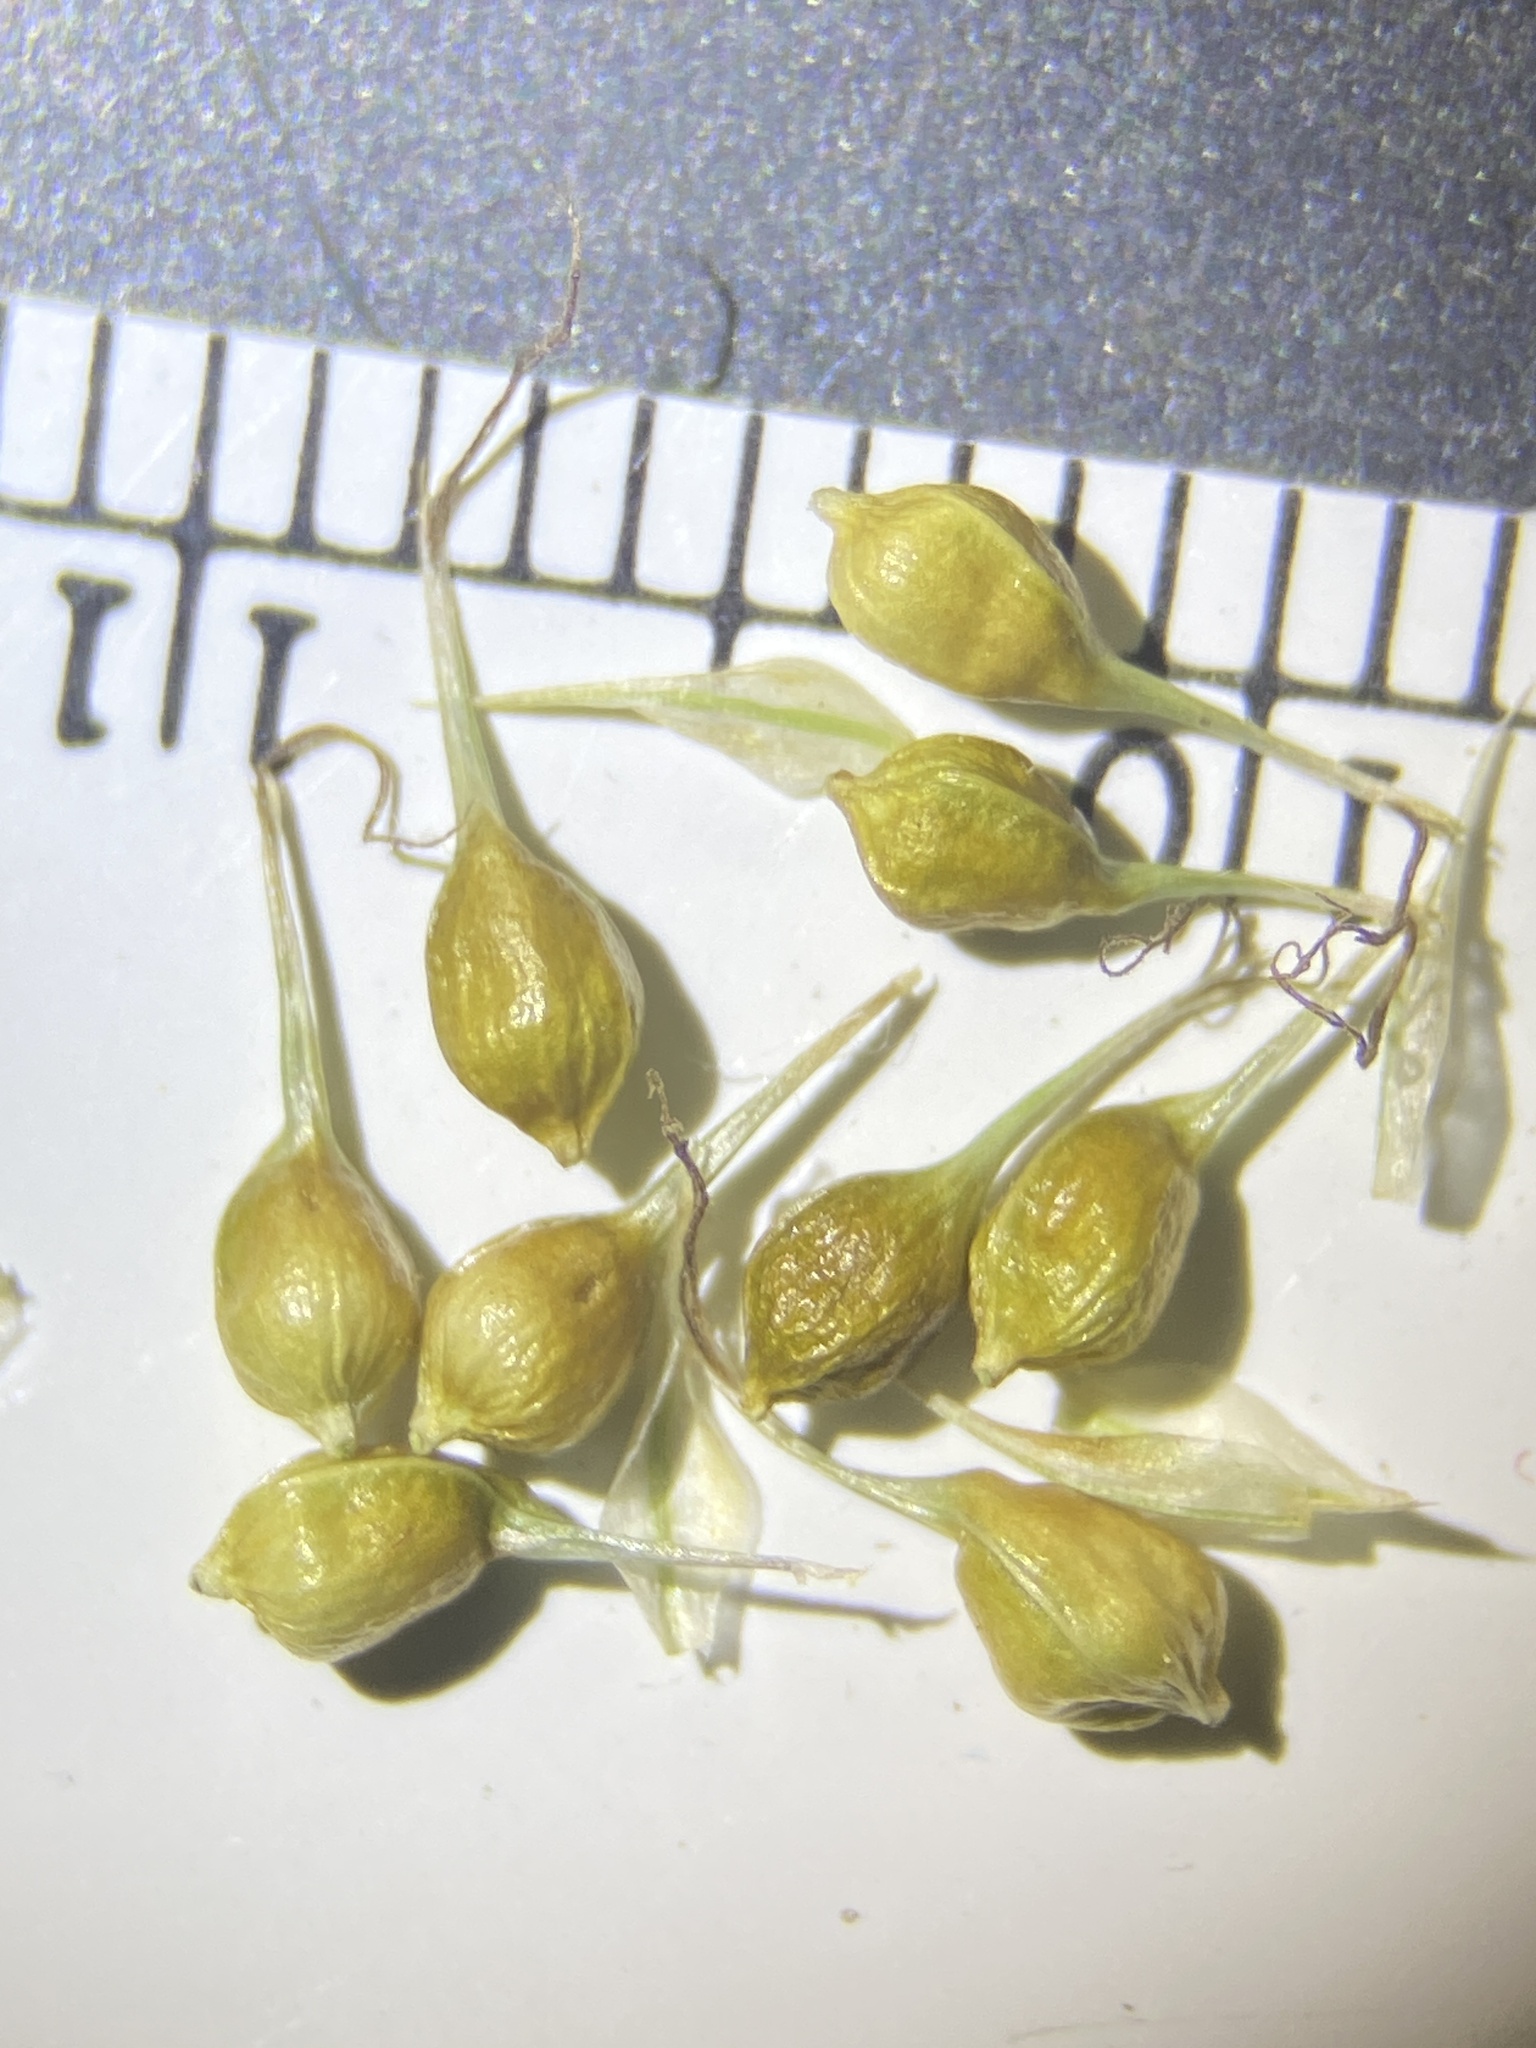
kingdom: Plantae
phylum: Tracheophyta
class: Liliopsida
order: Poales
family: Cyperaceae
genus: Carex
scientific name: Carex sprengelii
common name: Long-beaked sedge
